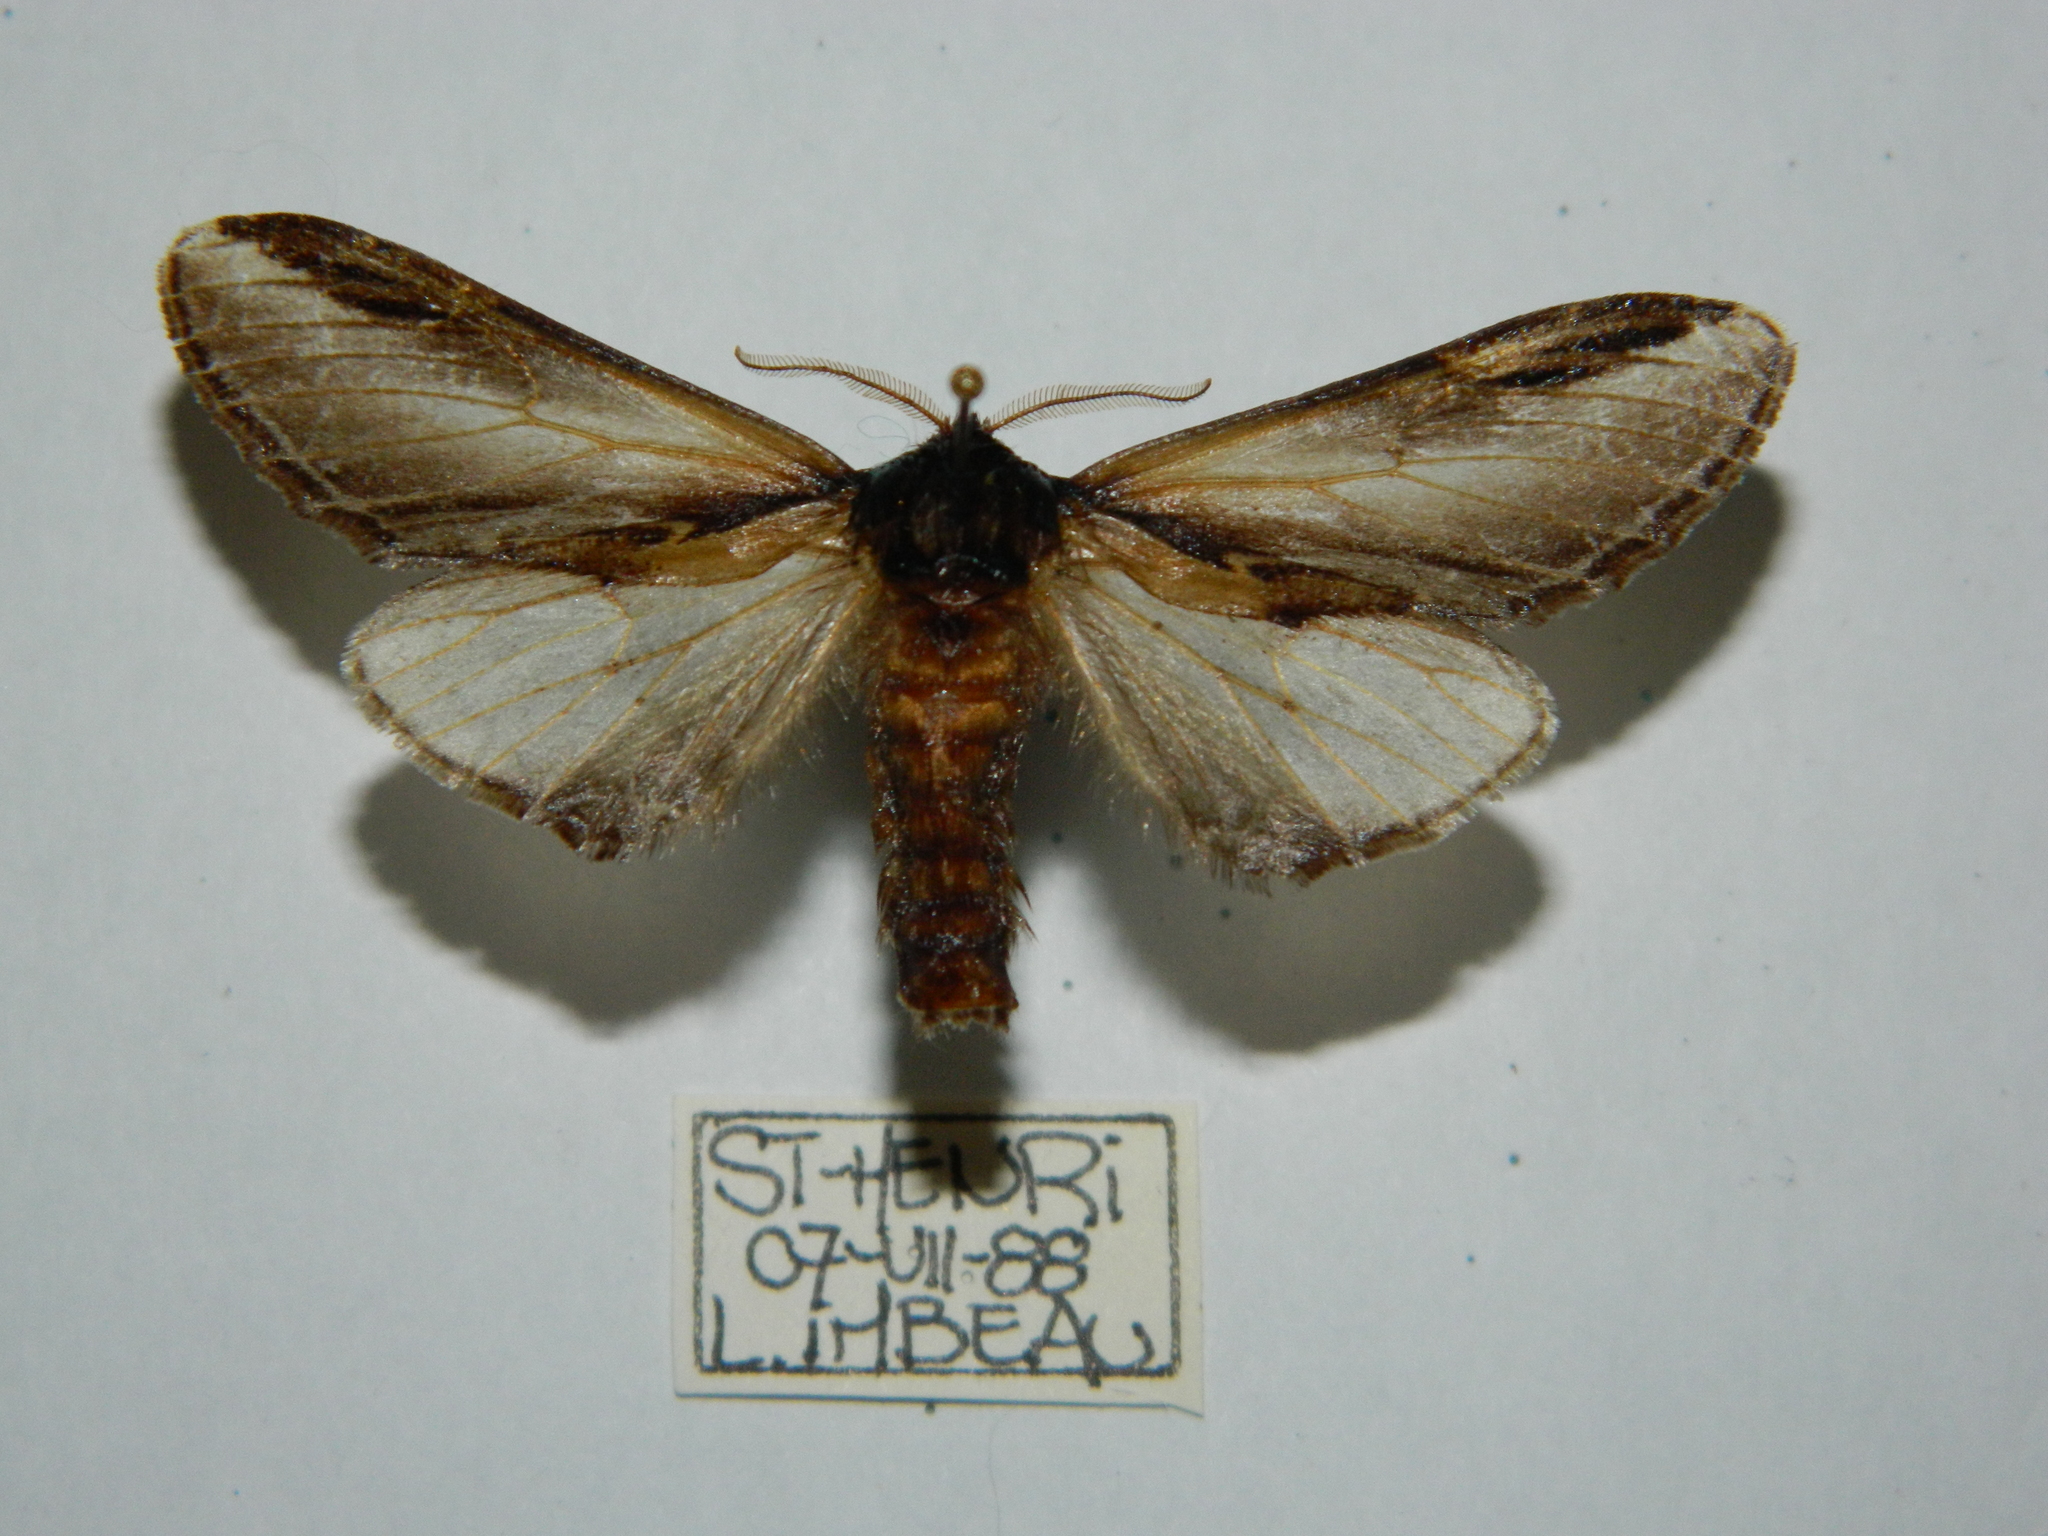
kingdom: Animalia
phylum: Arthropoda
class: Insecta
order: Lepidoptera
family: Notodontidae
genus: Pheosia
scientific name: Pheosia rimosa
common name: Black-rimmed prominent
